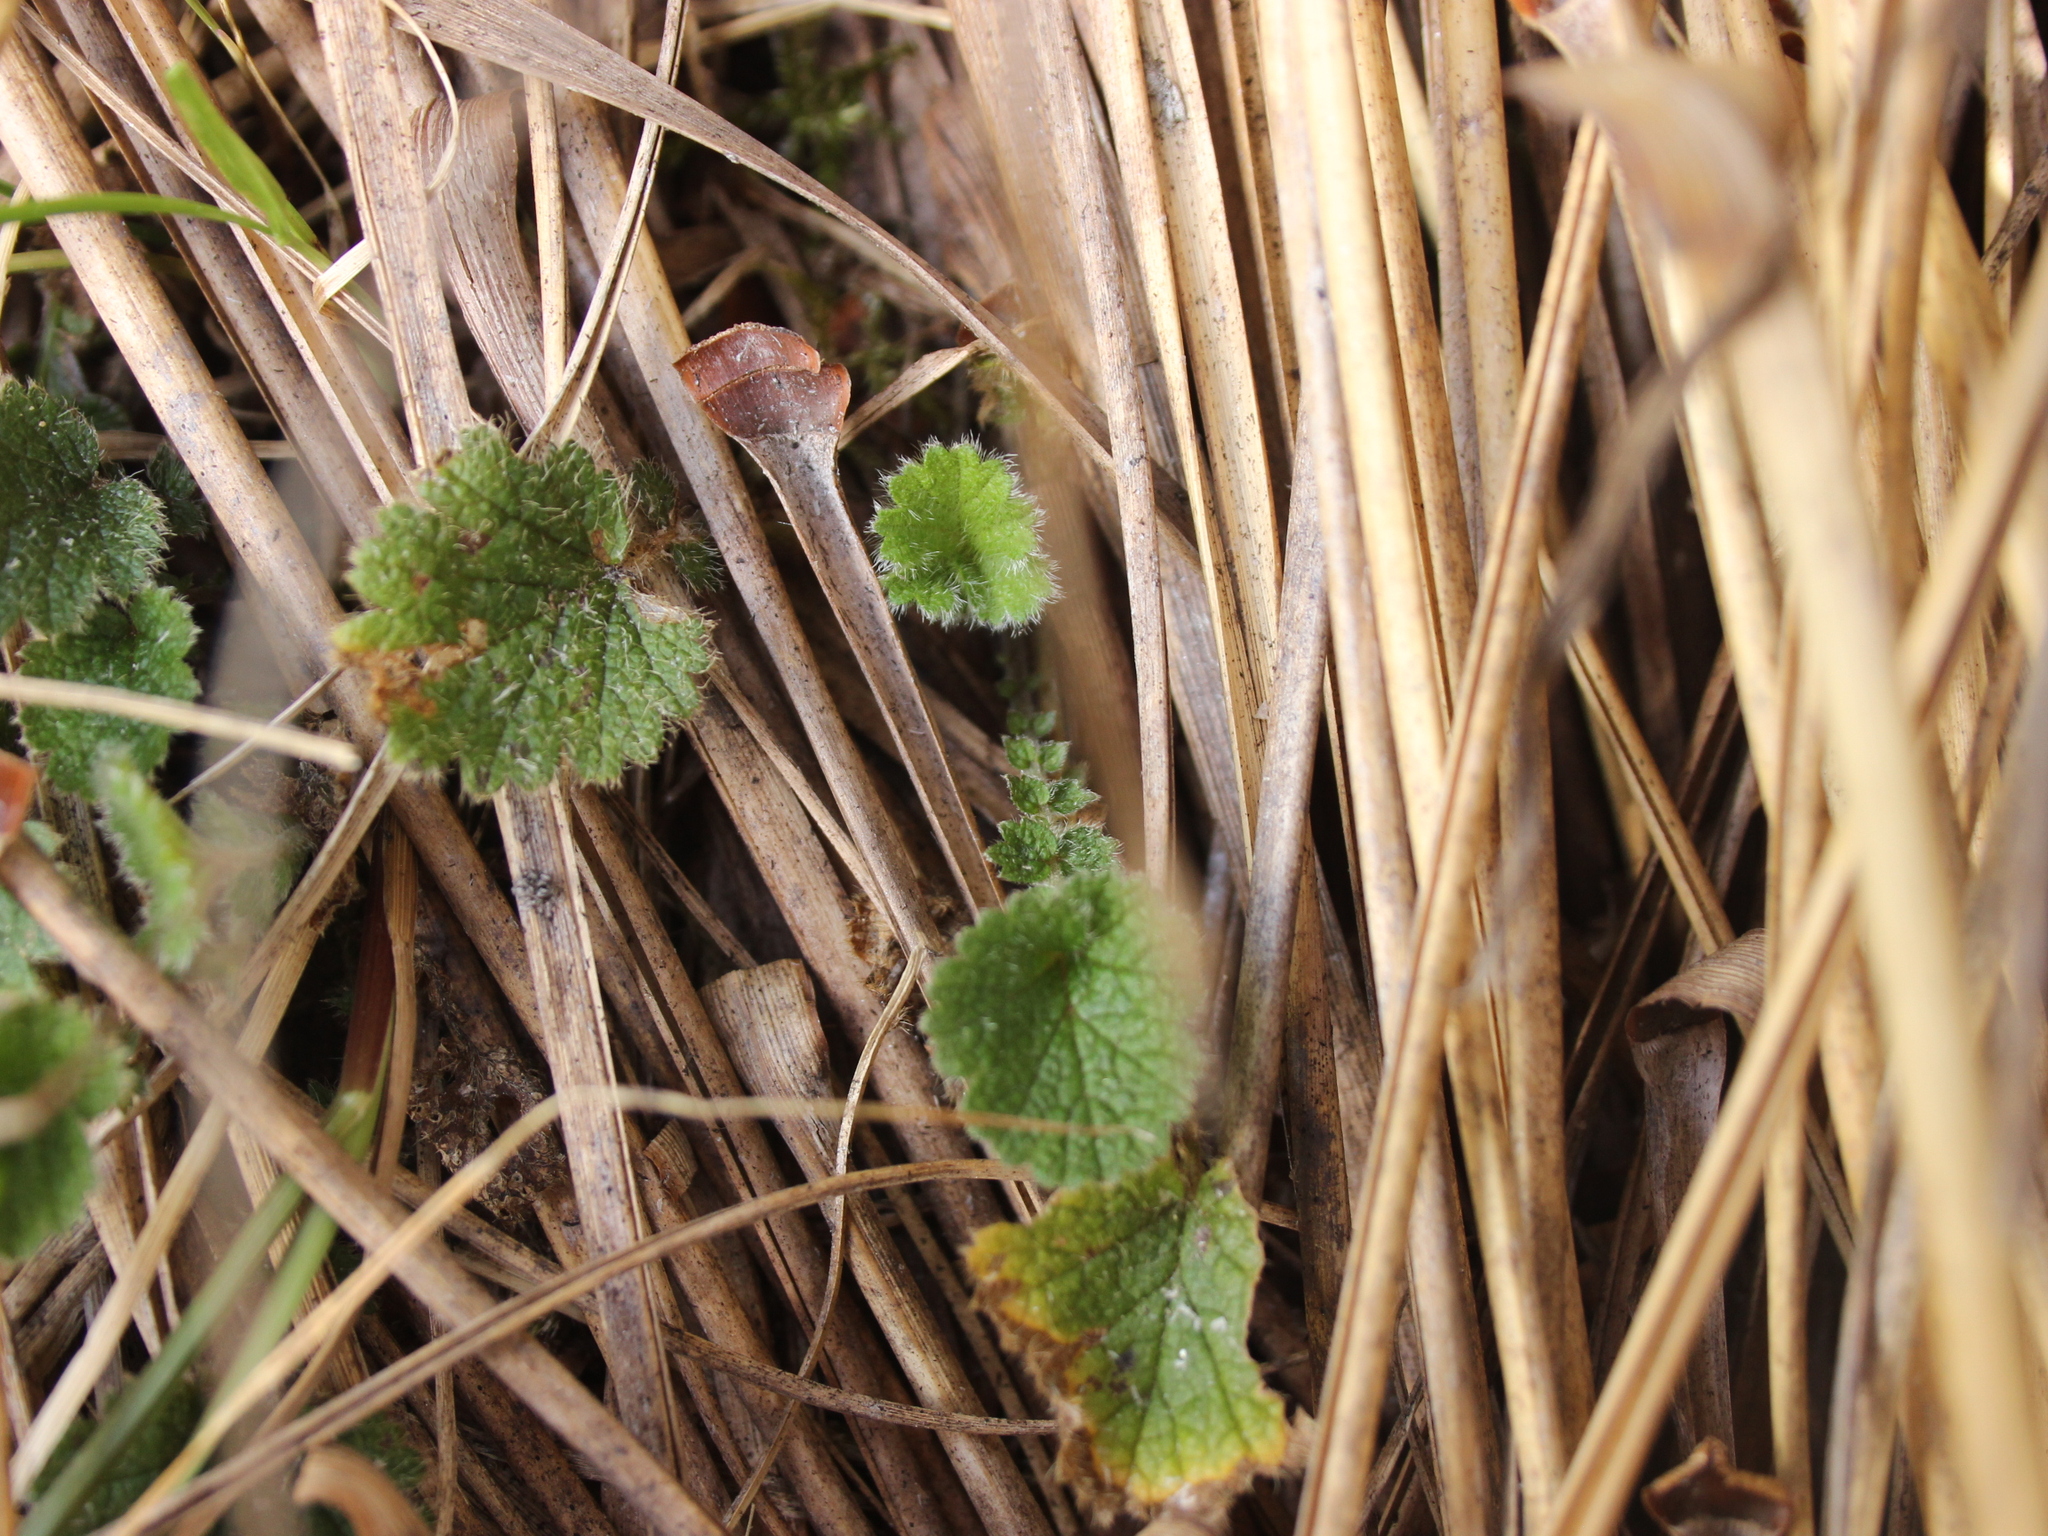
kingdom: Plantae
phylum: Tracheophyta
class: Magnoliopsida
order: Rosales
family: Rosaceae
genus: Geum
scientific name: Geum leiospermum
